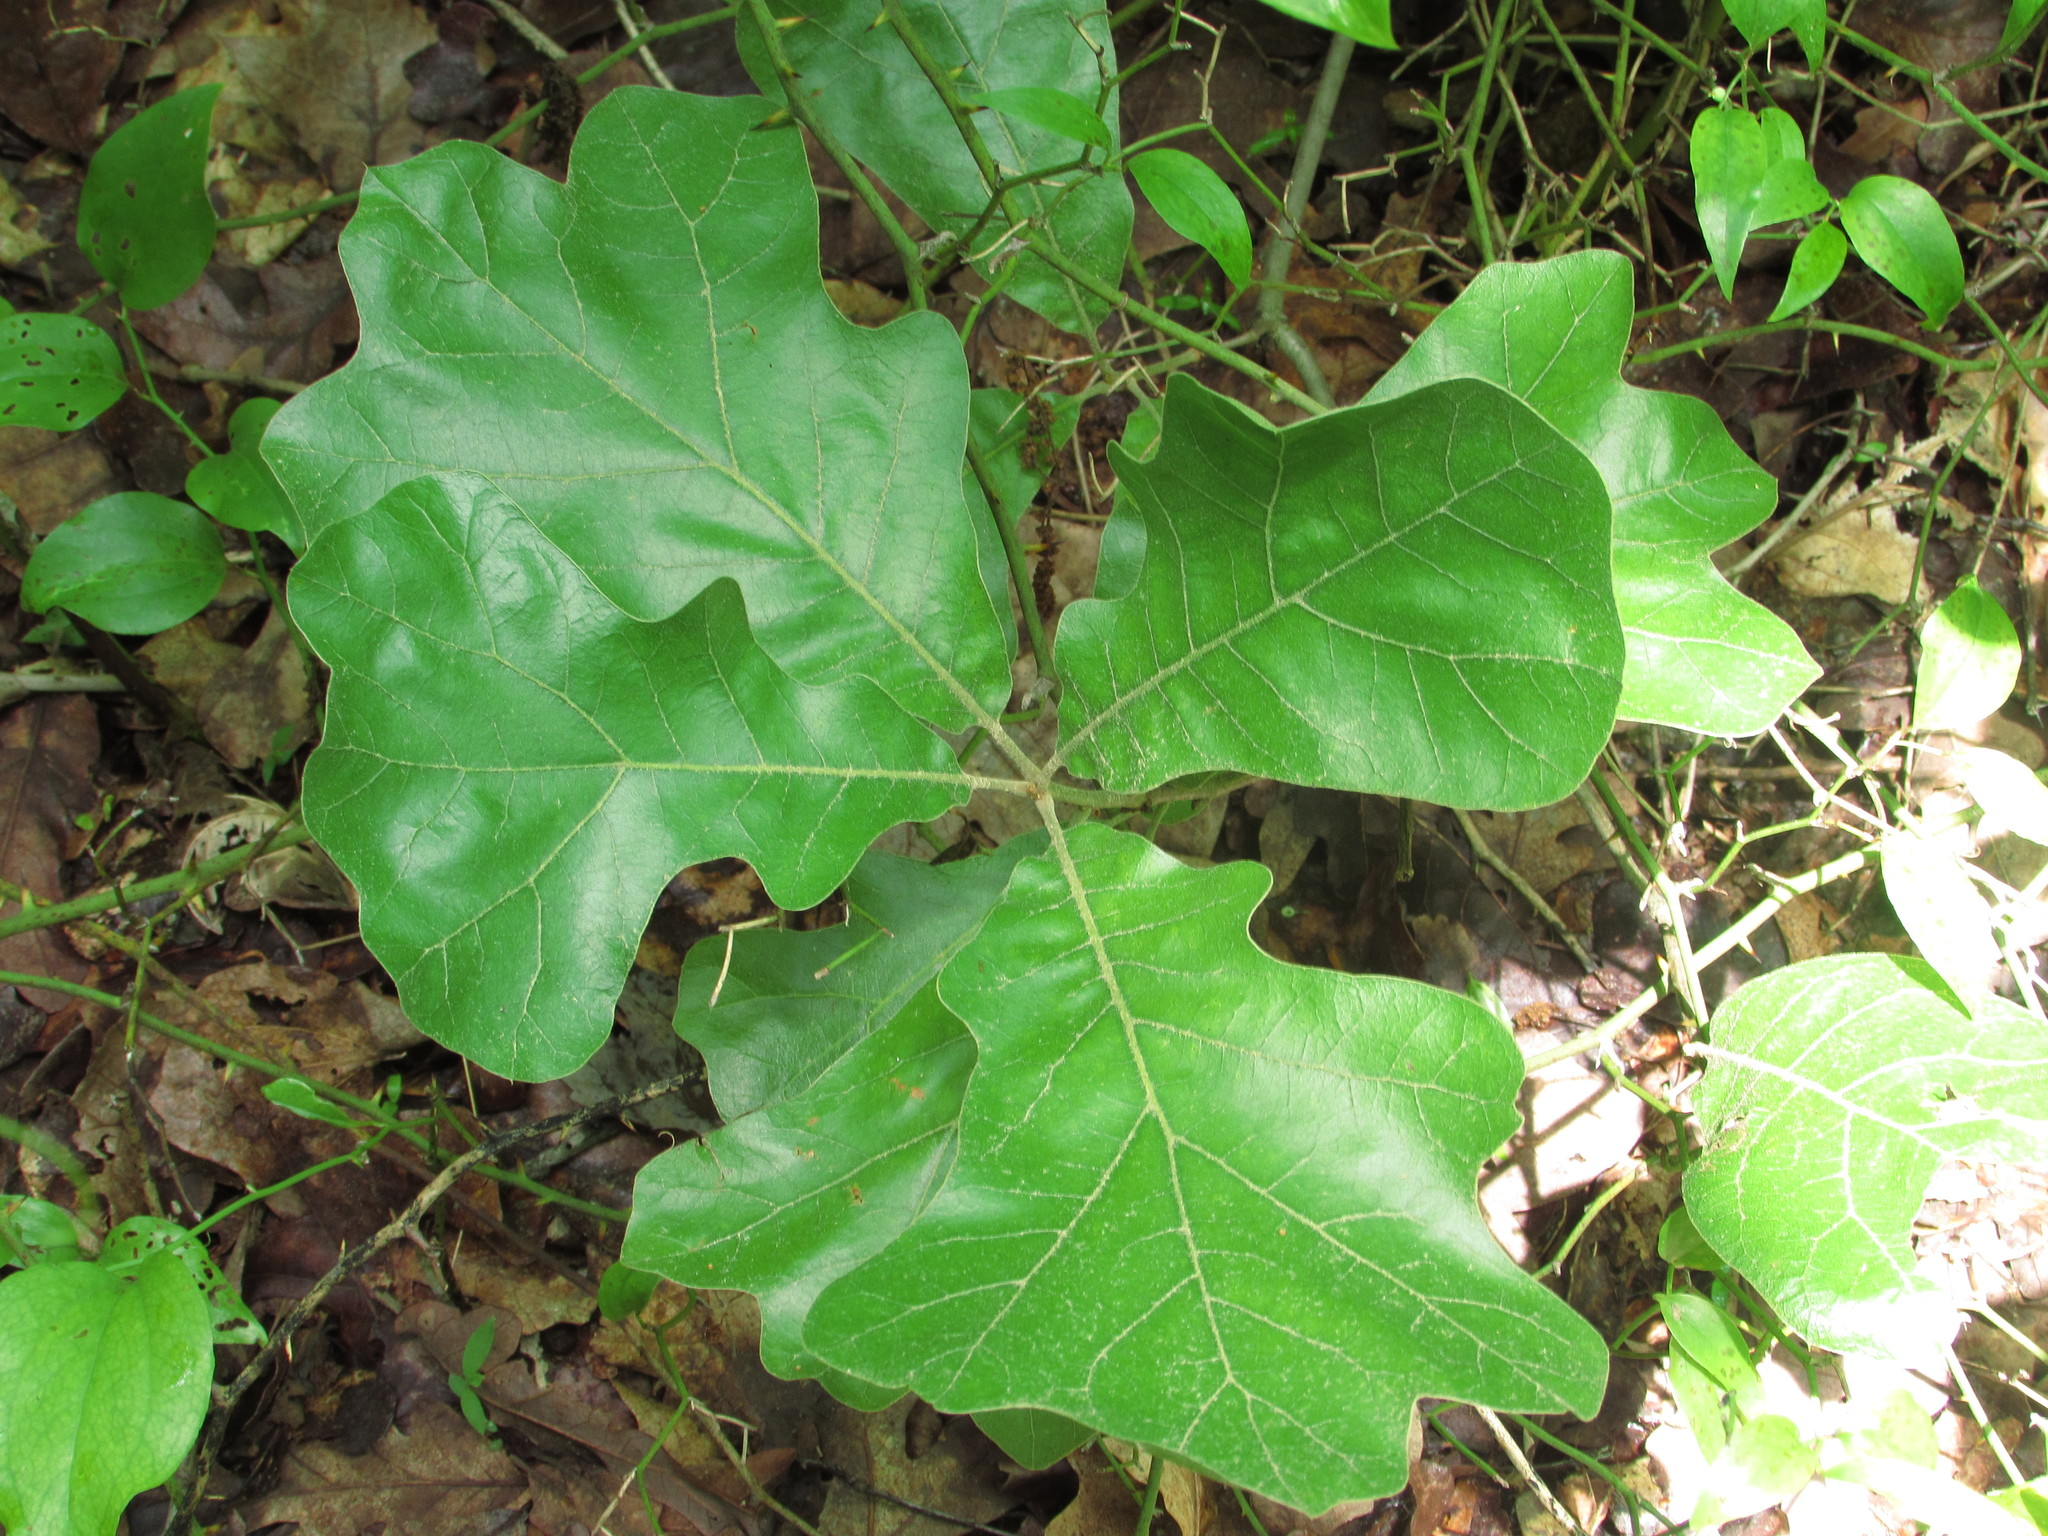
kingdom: Plantae
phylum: Tracheophyta
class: Magnoliopsida
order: Fagales
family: Fagaceae
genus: Quercus
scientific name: Quercus marilandica
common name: Blackjack oak
